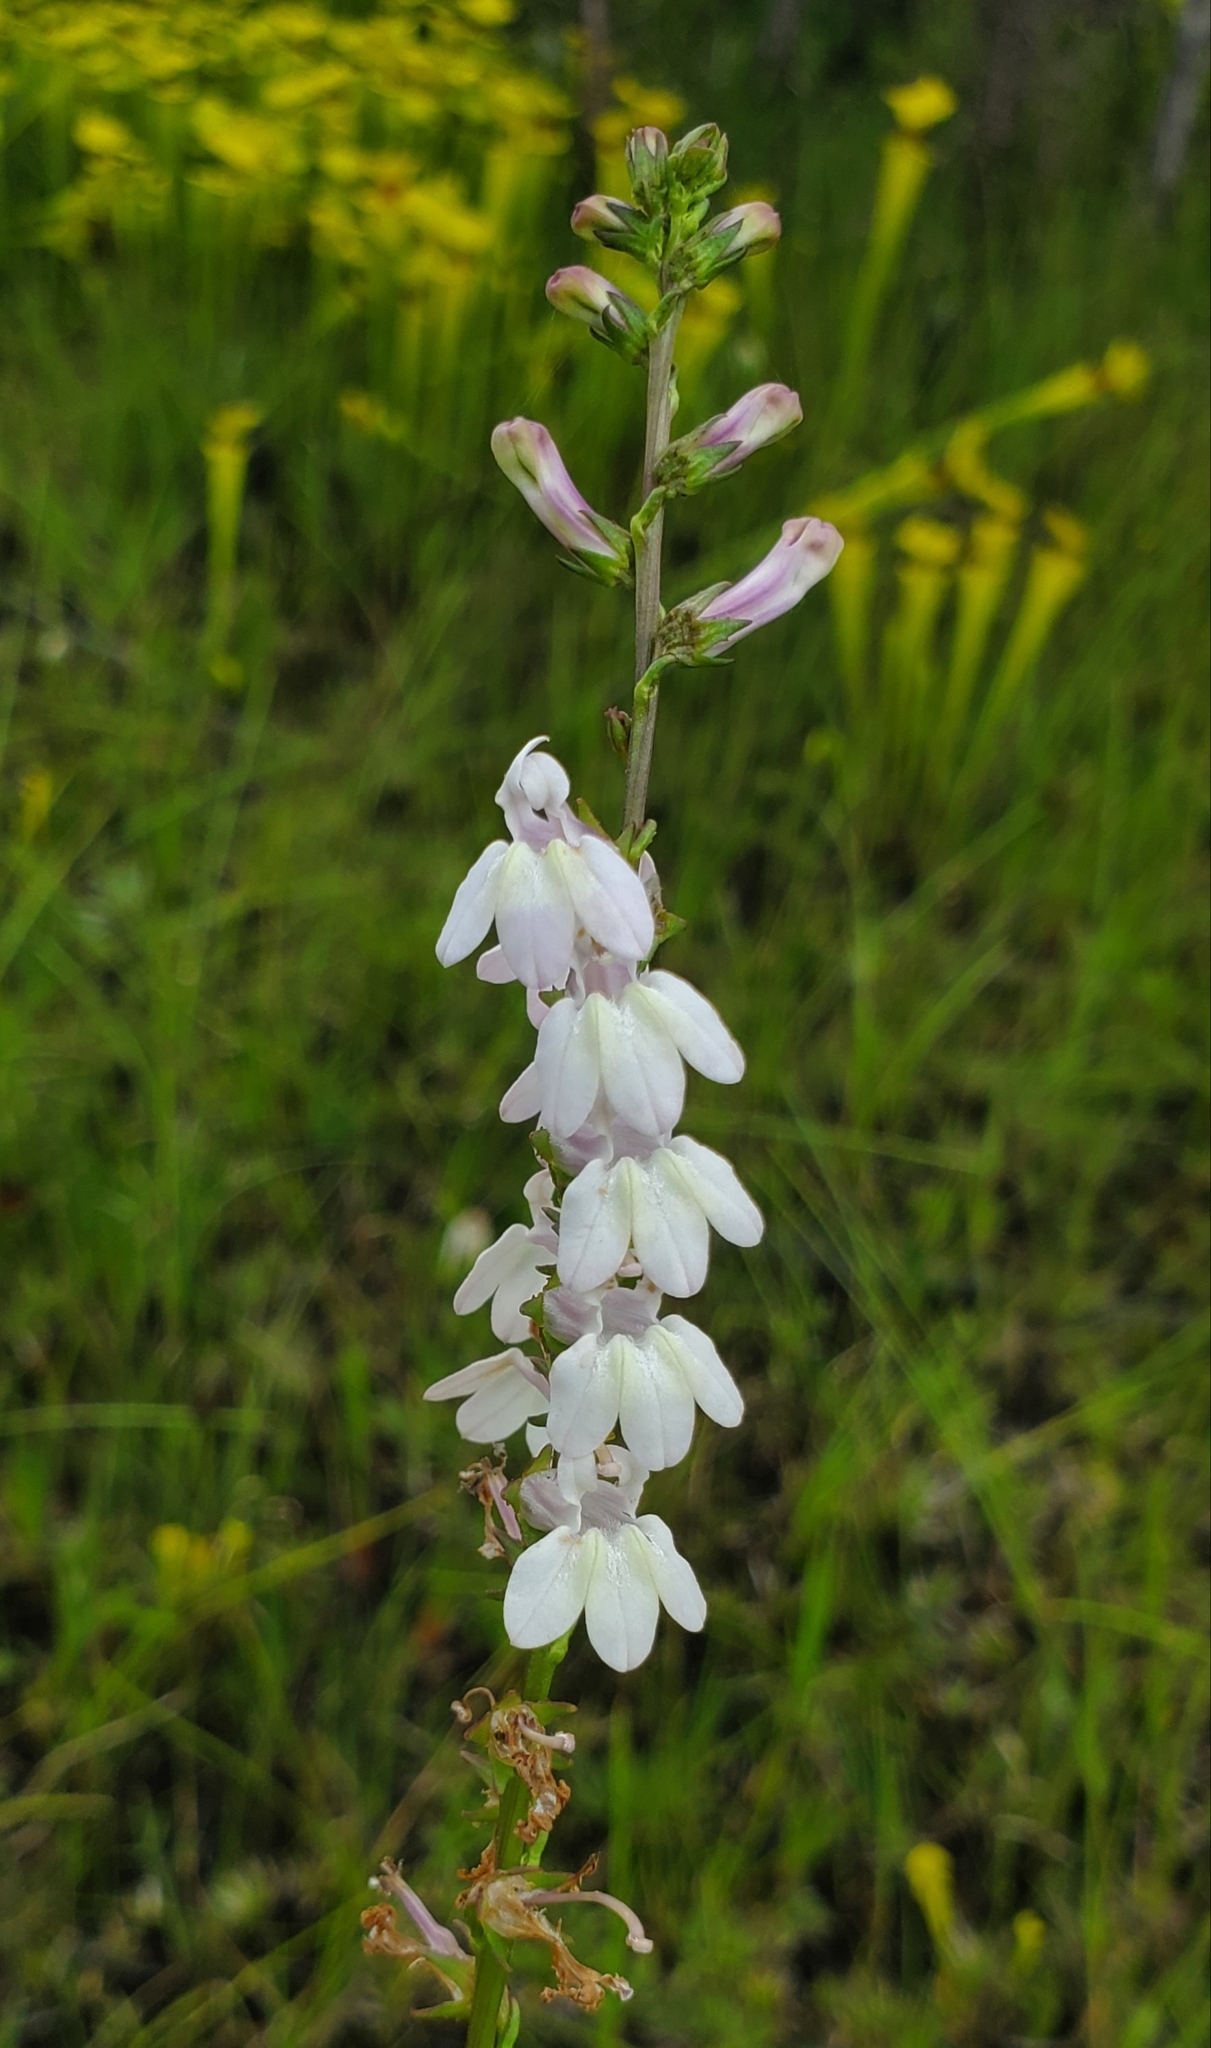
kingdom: Plantae
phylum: Tracheophyta
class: Magnoliopsida
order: Asterales
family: Campanulaceae
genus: Lobelia
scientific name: Lobelia floridana
